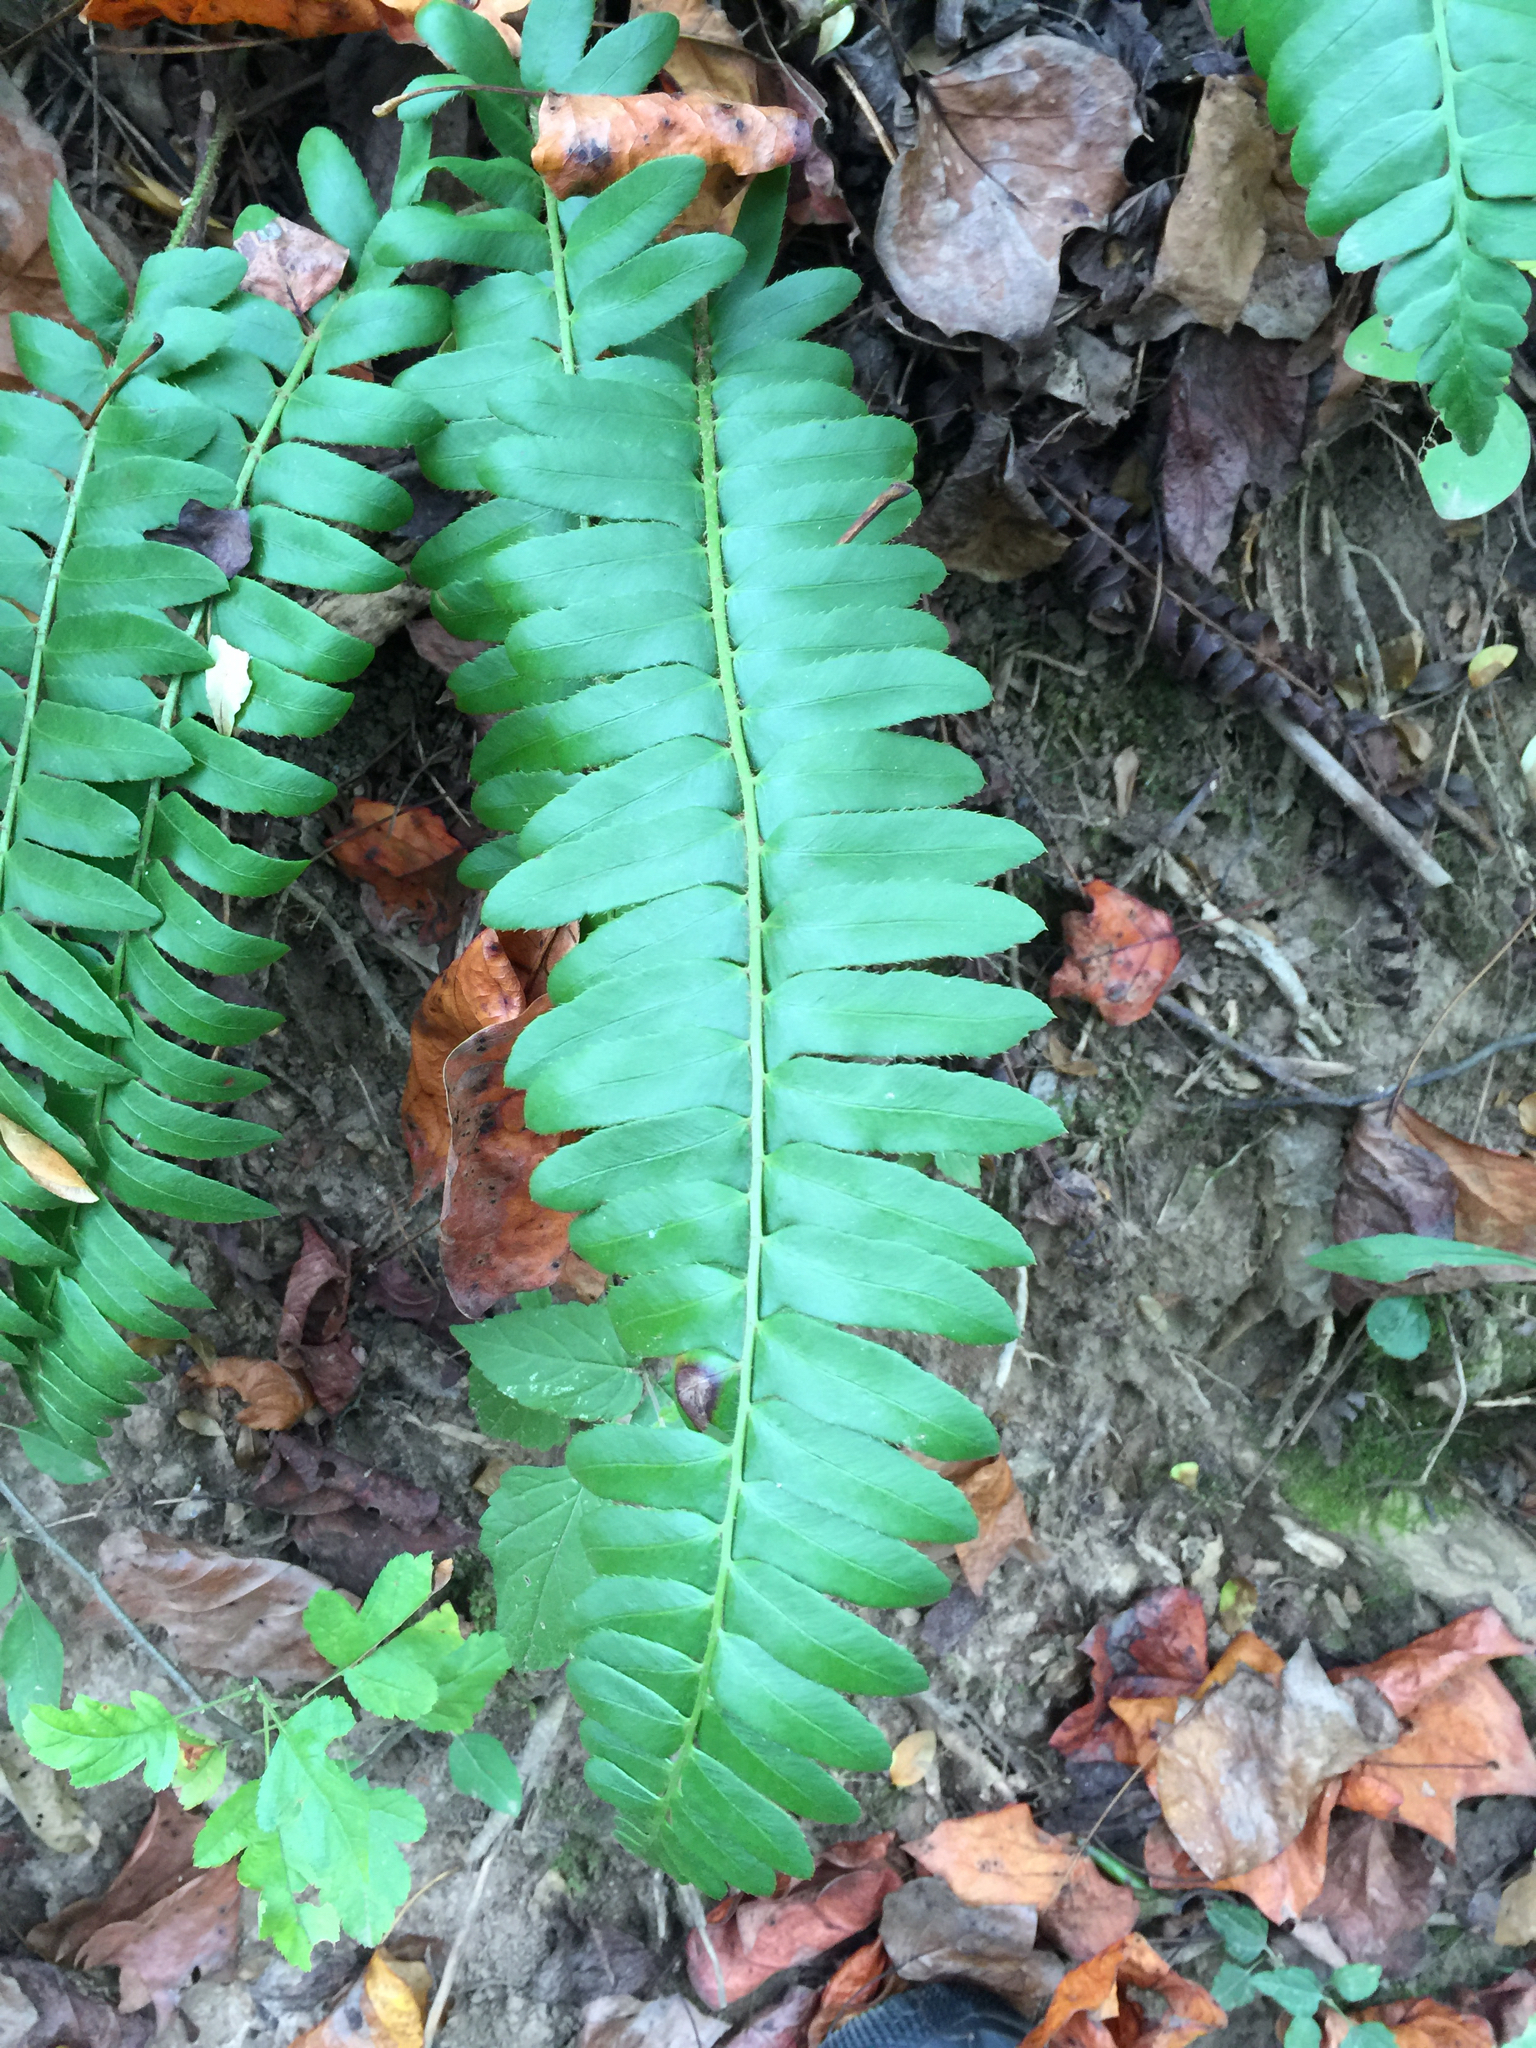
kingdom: Plantae
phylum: Tracheophyta
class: Polypodiopsida
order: Polypodiales
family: Dryopteridaceae
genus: Polystichum
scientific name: Polystichum acrostichoides
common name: Christmas fern
